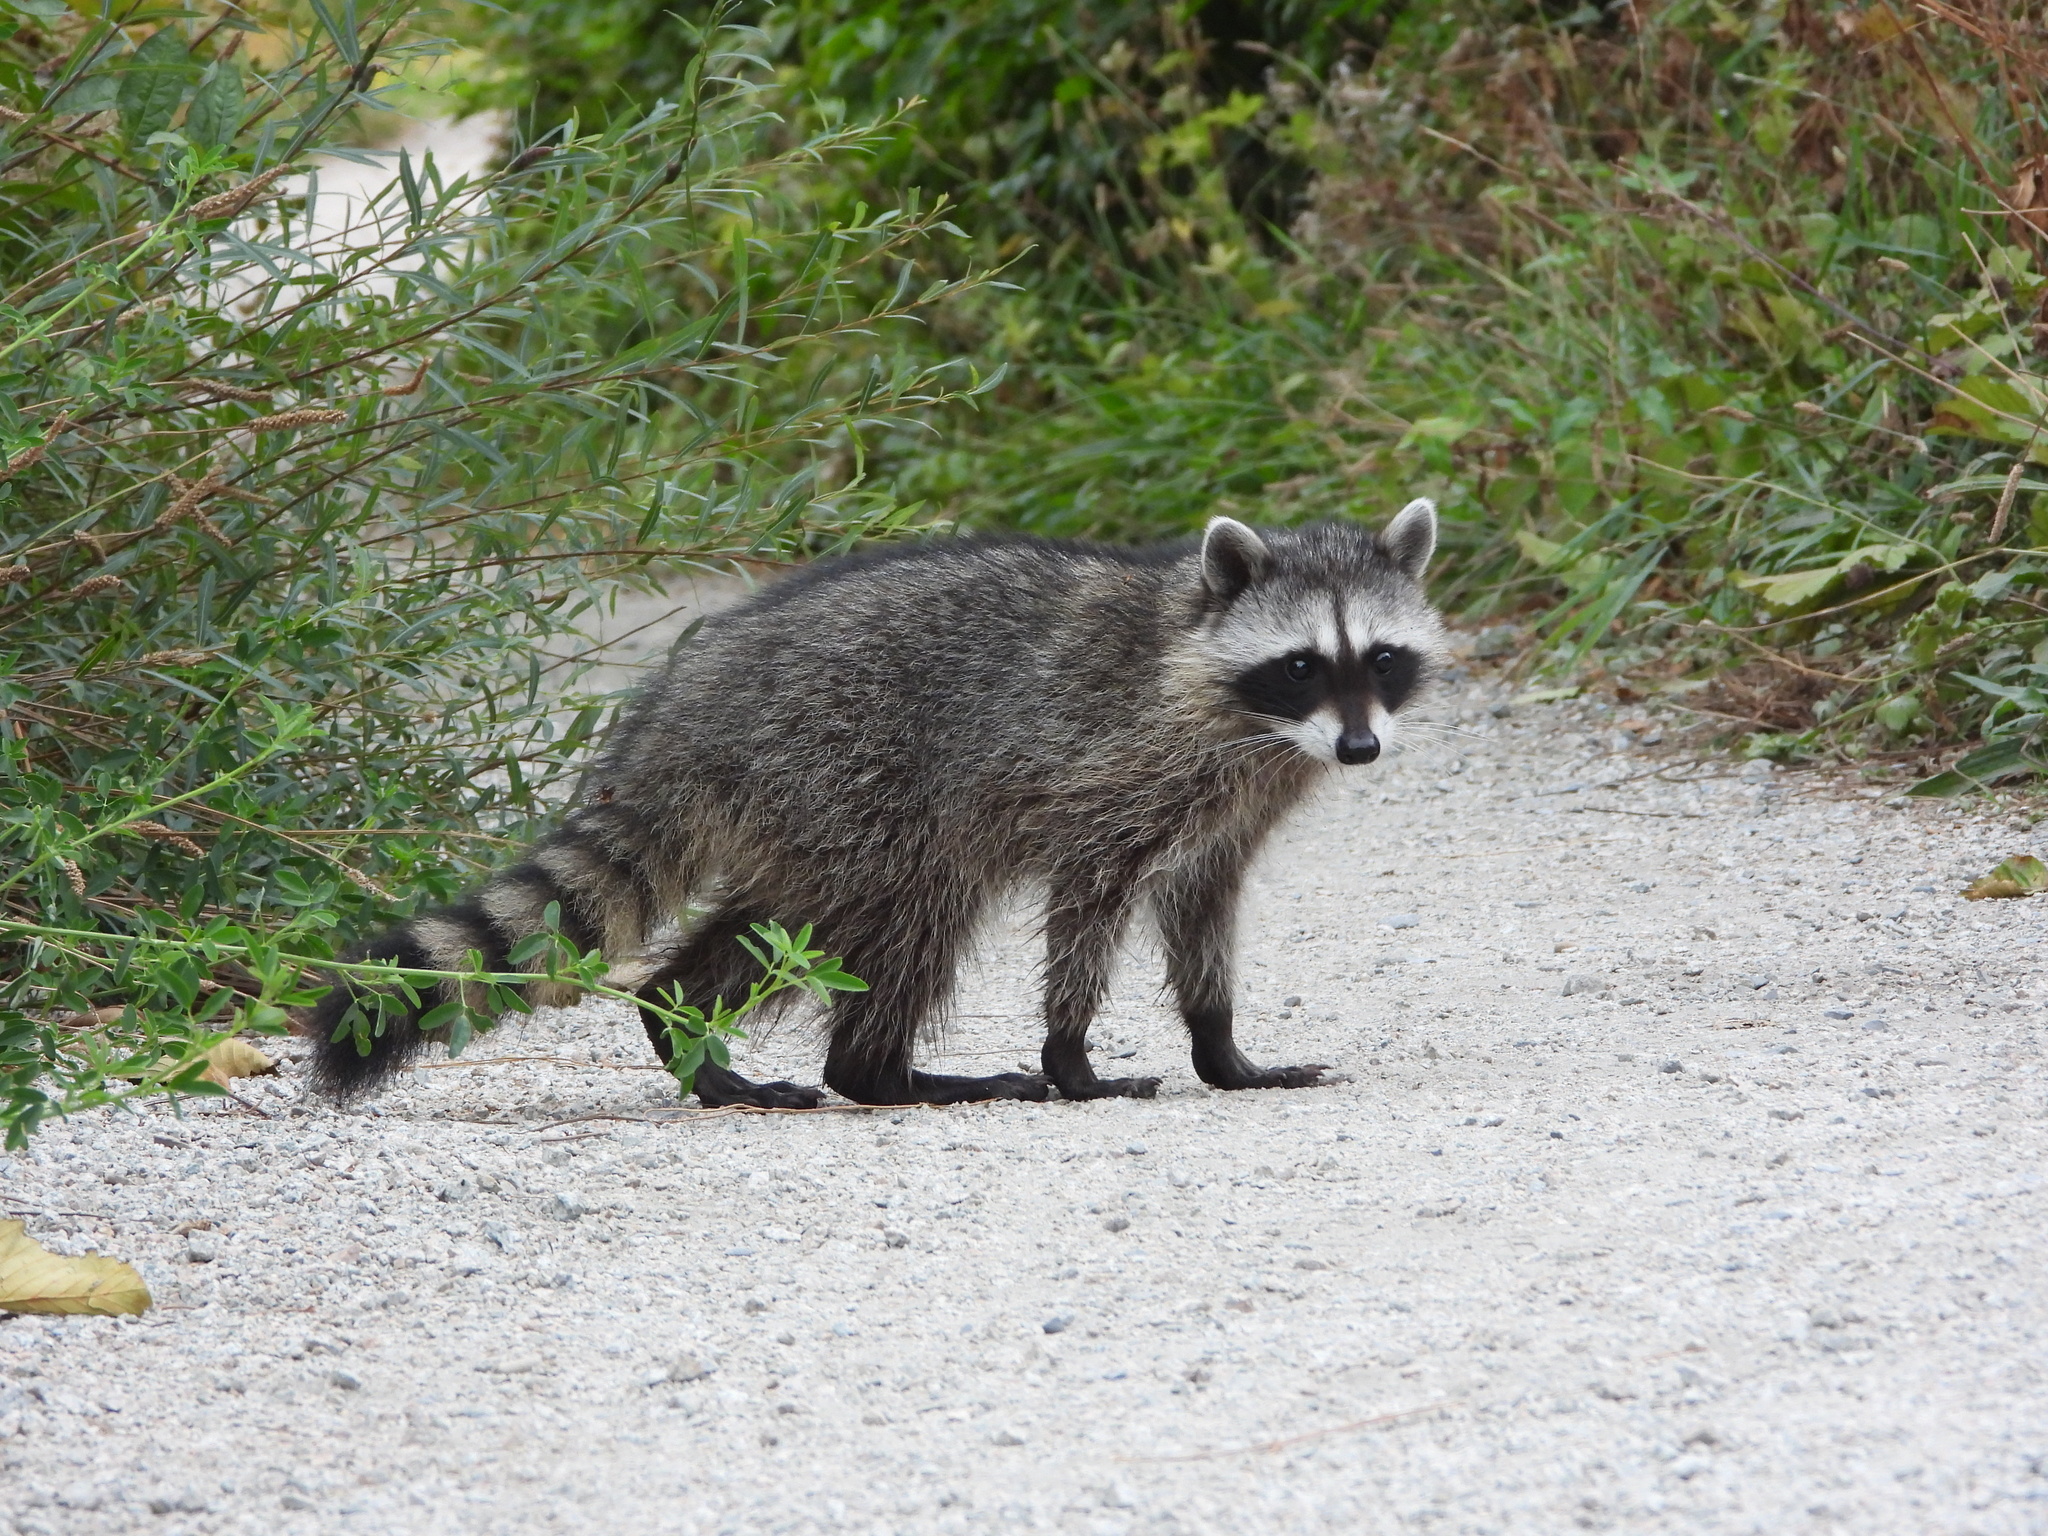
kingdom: Animalia
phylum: Chordata
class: Mammalia
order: Carnivora
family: Procyonidae
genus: Procyon
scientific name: Procyon lotor
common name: Raccoon
